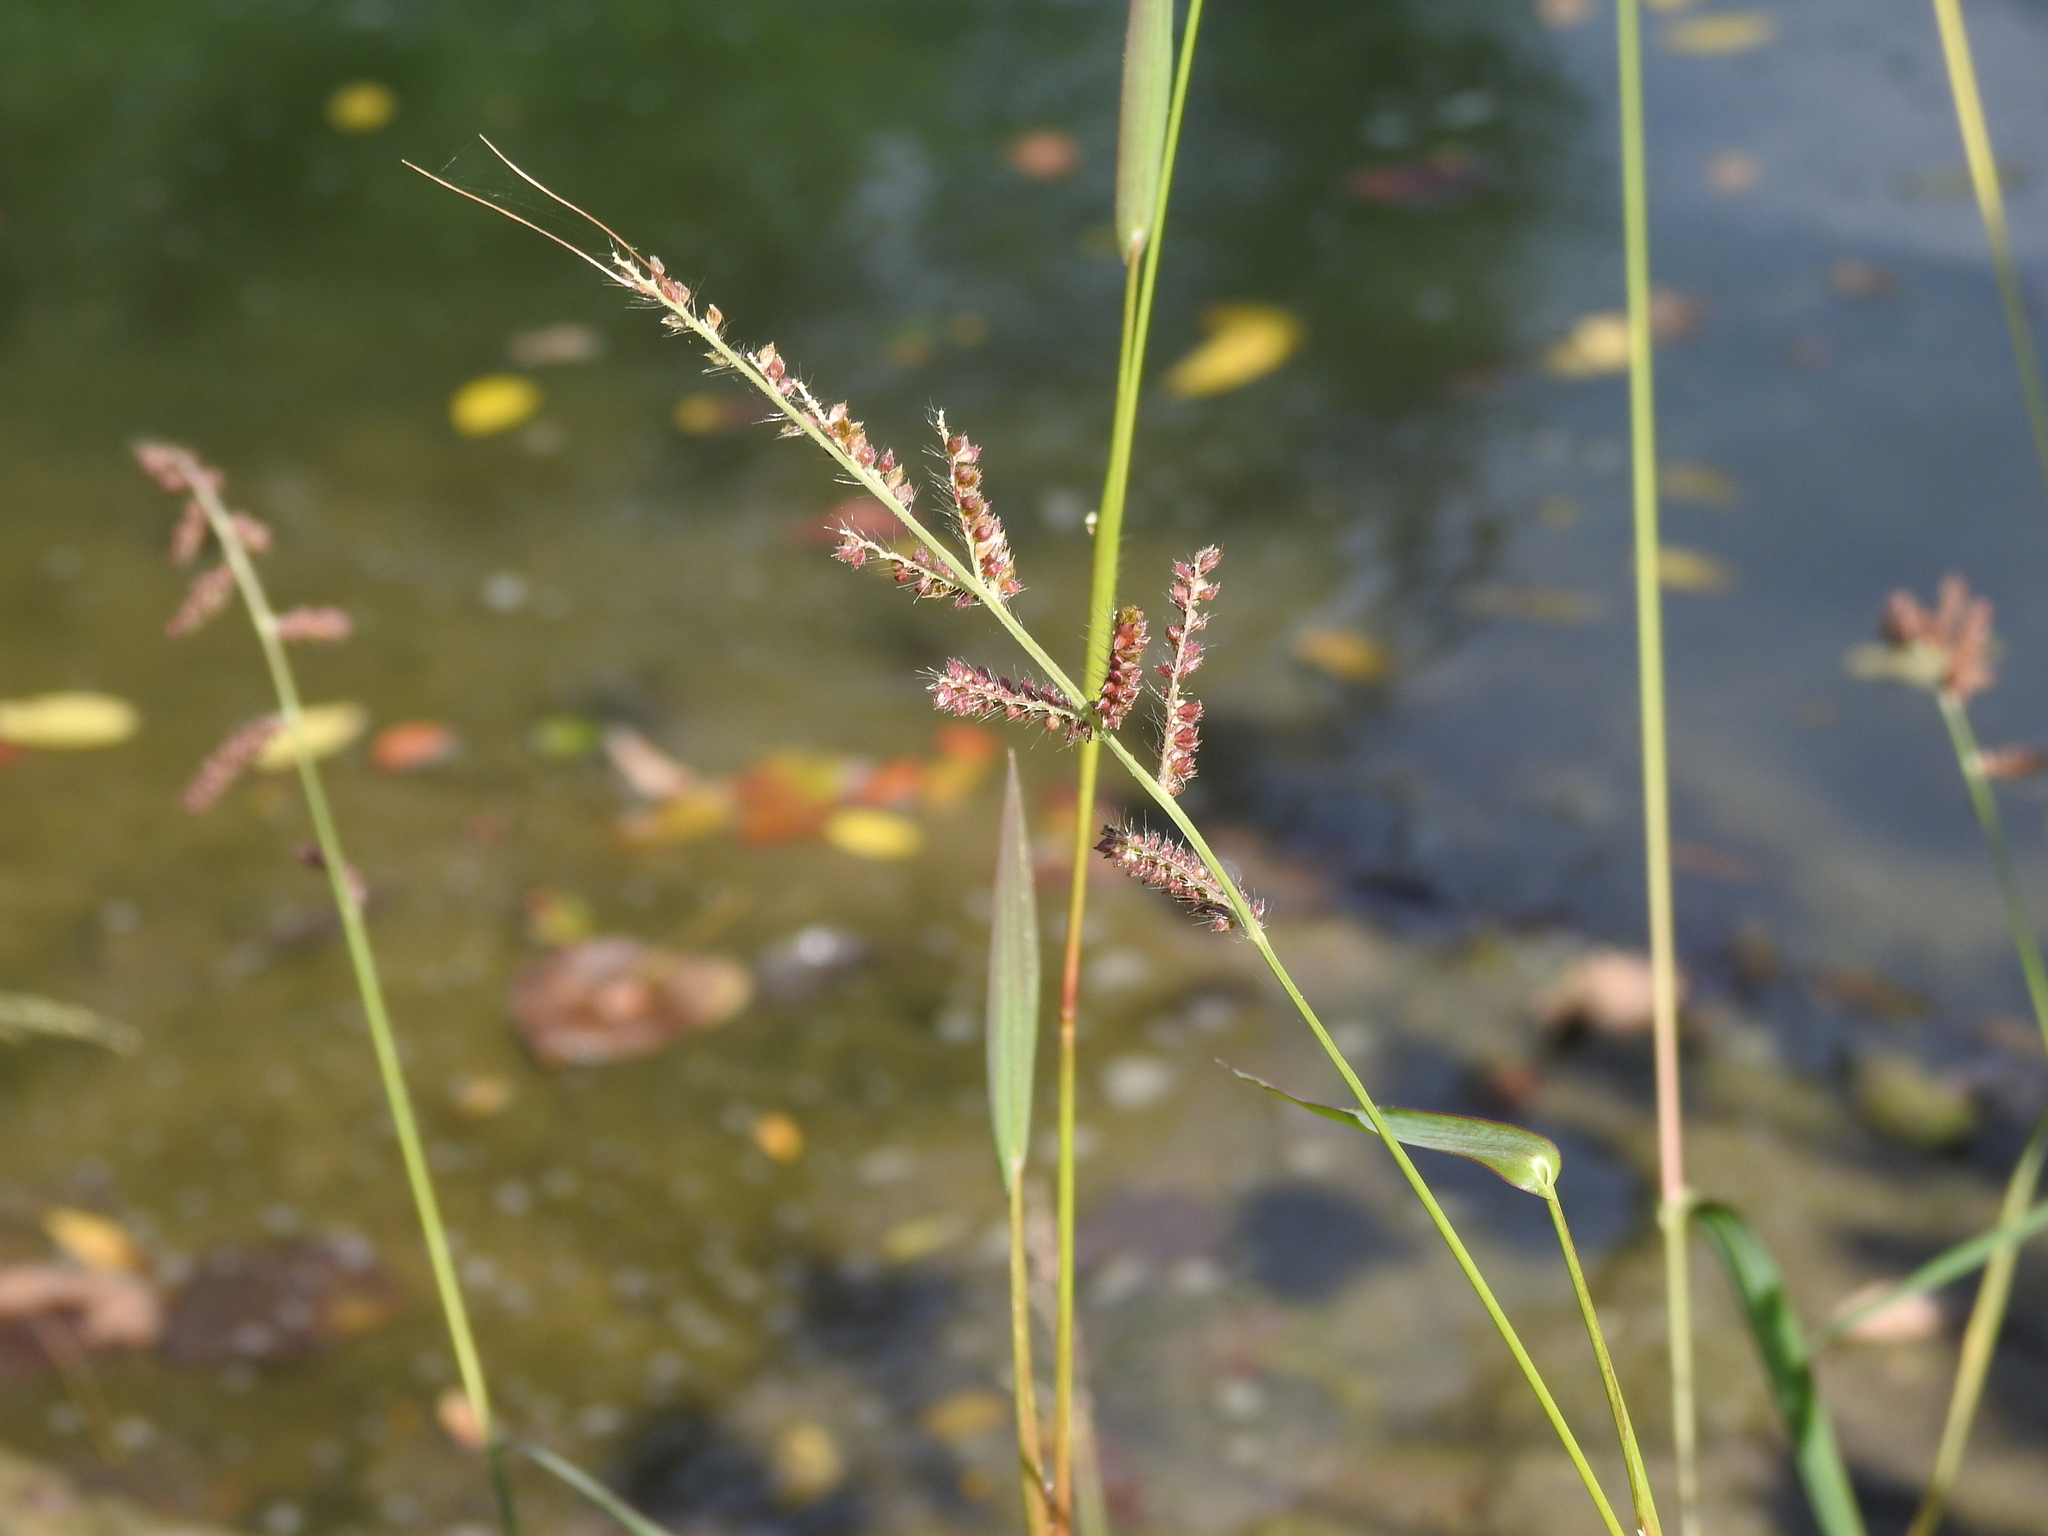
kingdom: Plantae
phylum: Tracheophyta
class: Liliopsida
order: Poales
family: Poaceae
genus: Echinochloa
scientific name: Echinochloa crus-galli
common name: Cockspur
